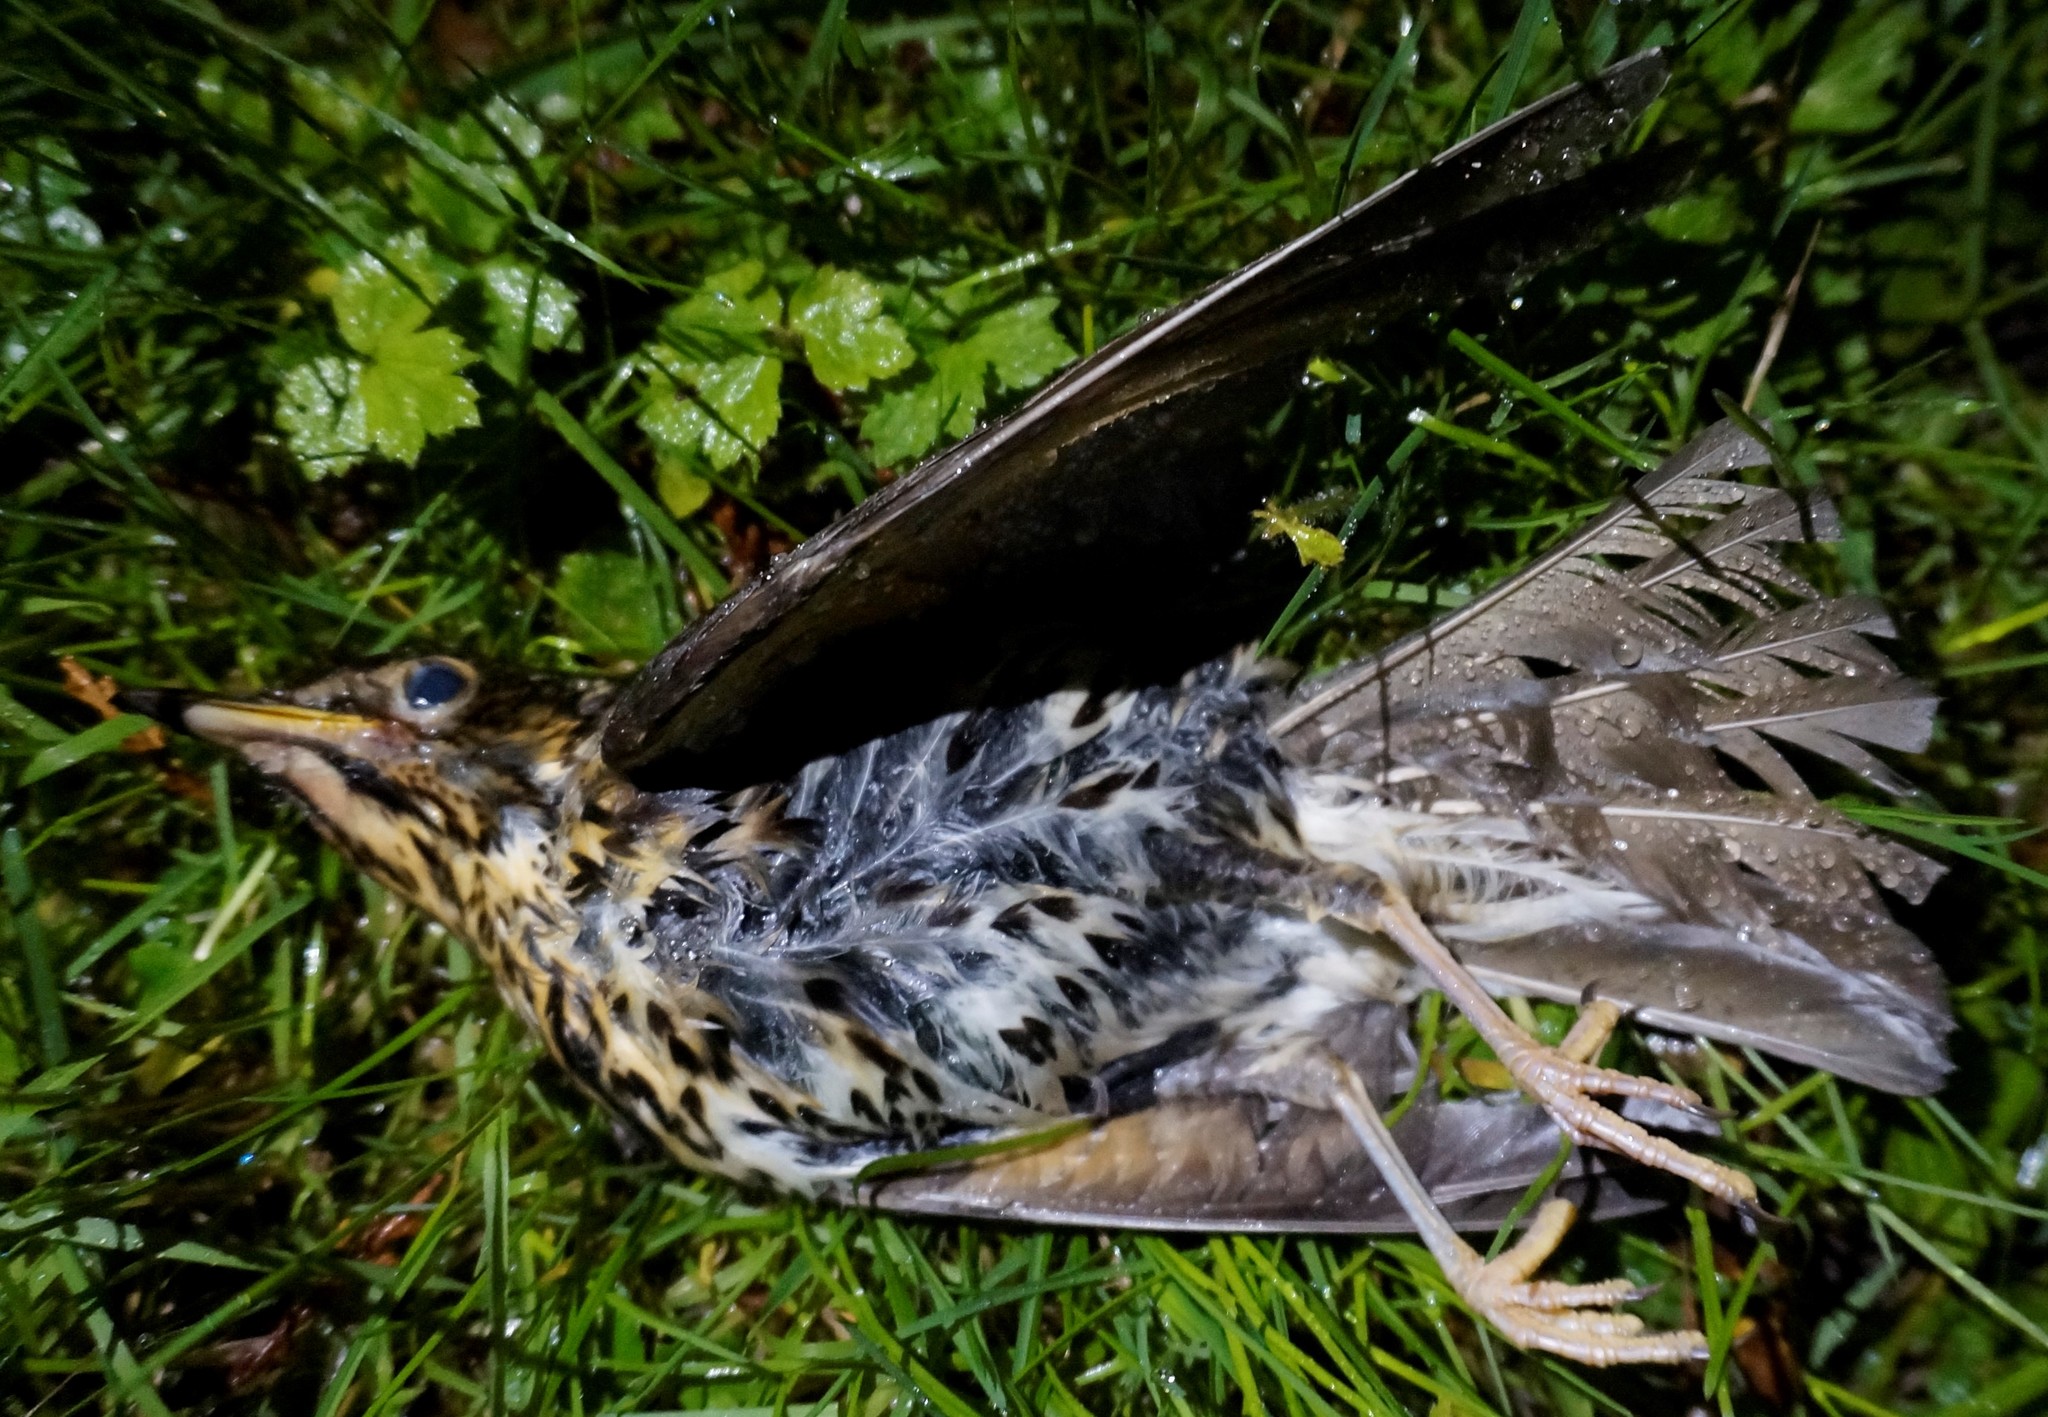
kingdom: Animalia
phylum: Chordata
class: Aves
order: Passeriformes
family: Turdidae
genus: Turdus
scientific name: Turdus philomelos
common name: Song thrush
